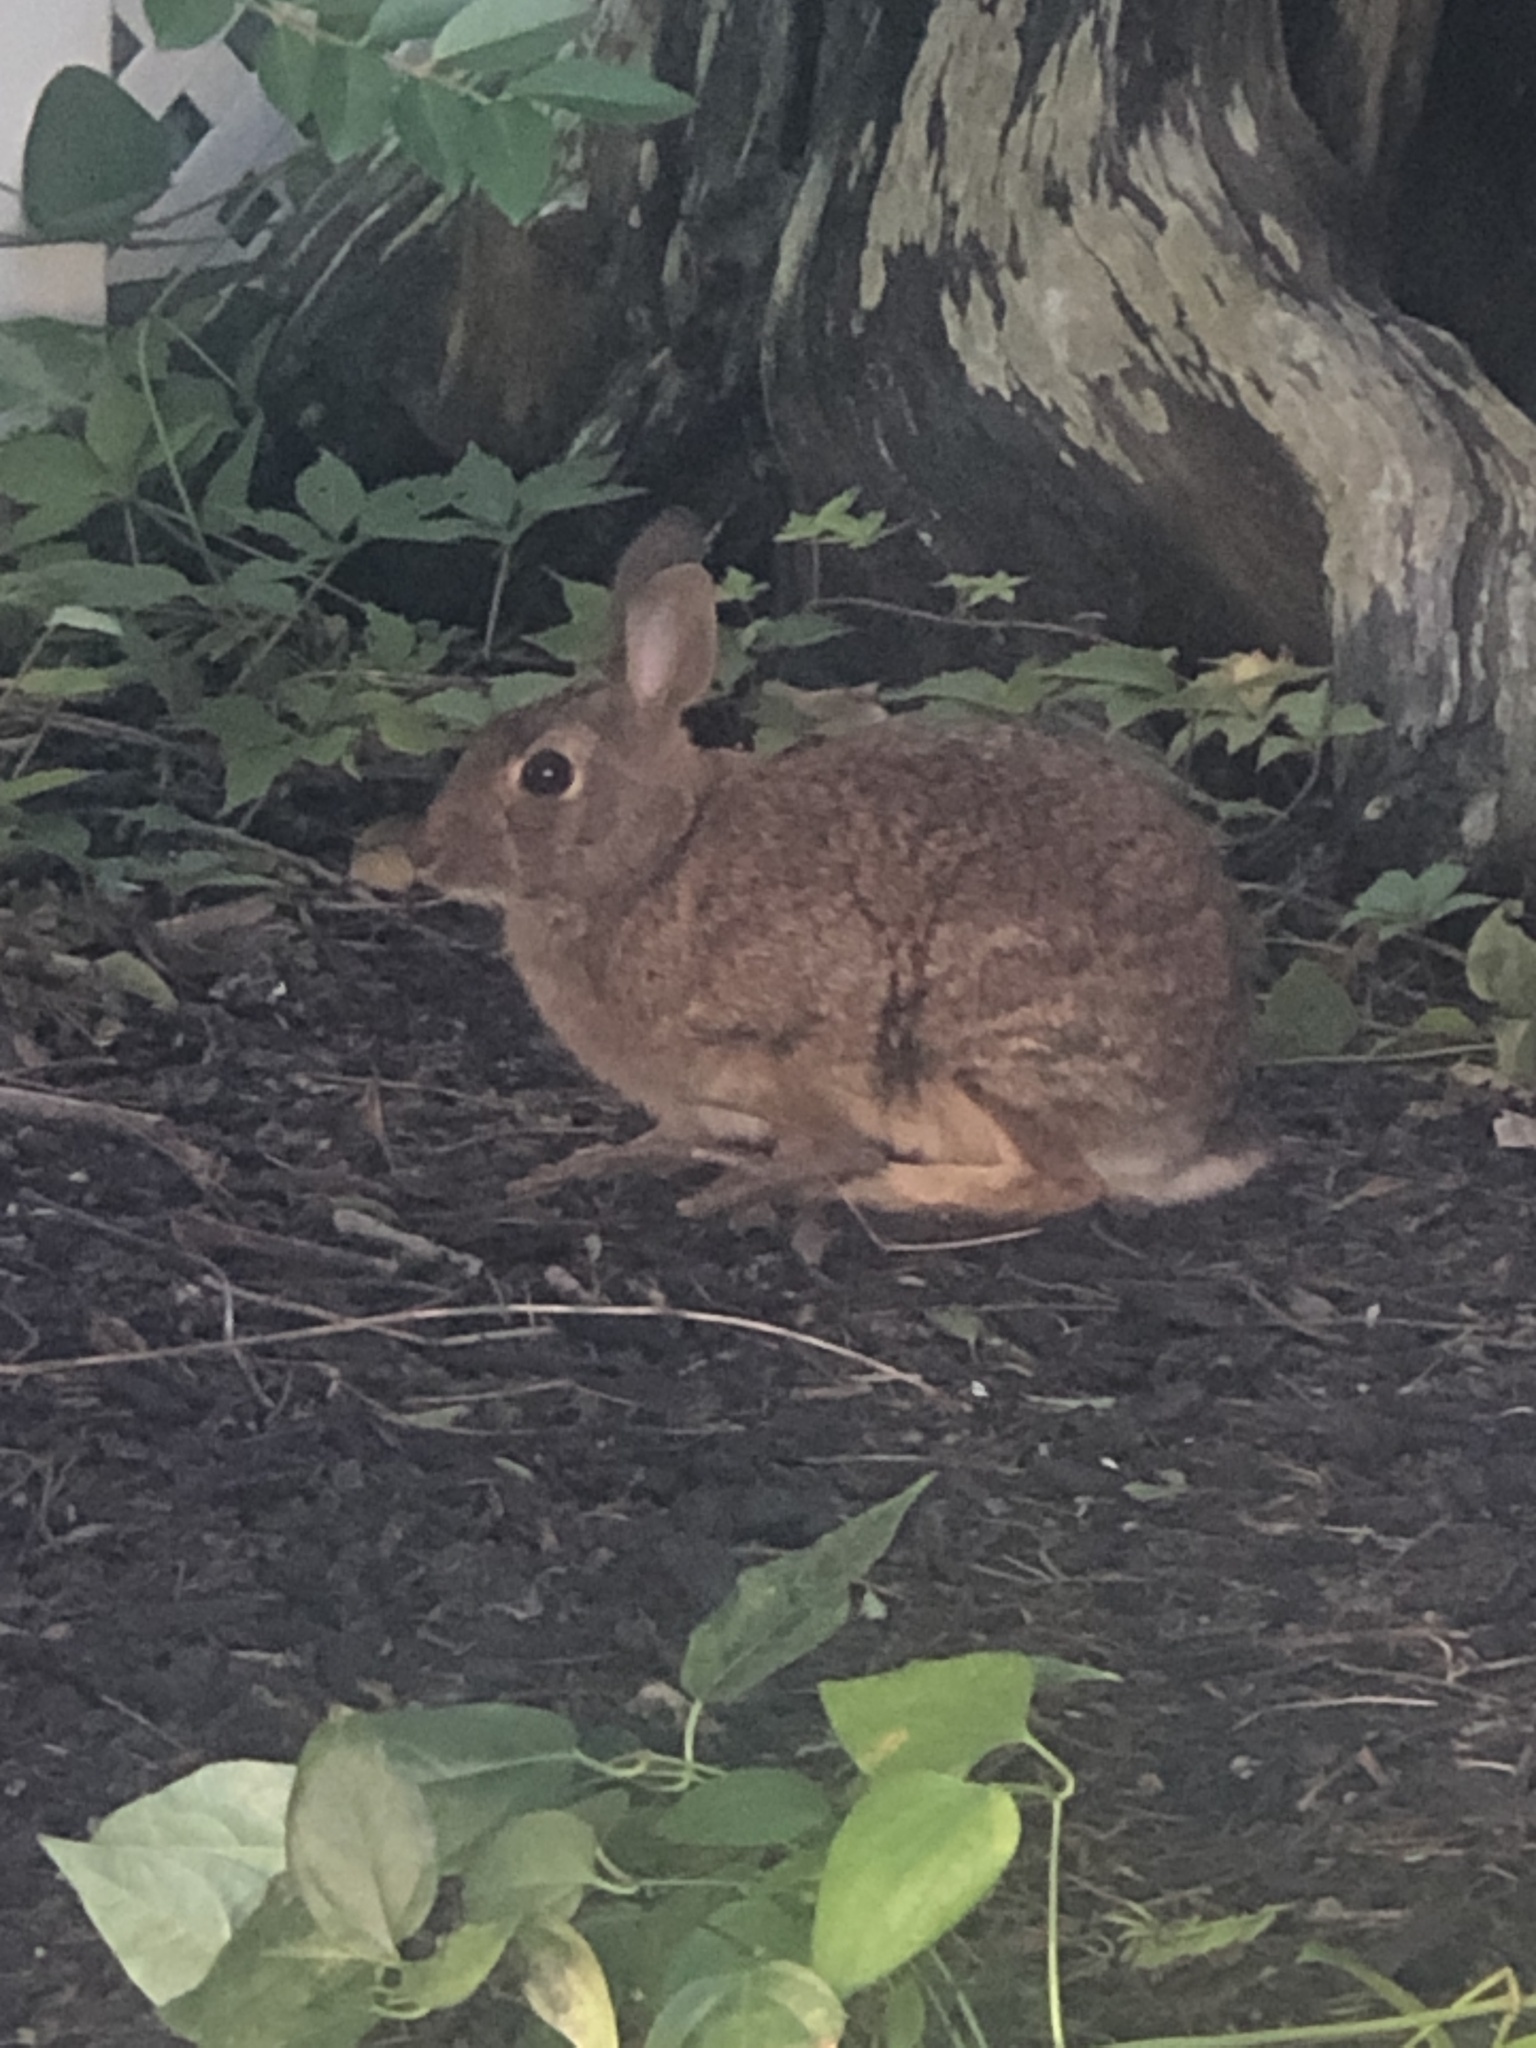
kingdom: Animalia
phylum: Chordata
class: Mammalia
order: Lagomorpha
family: Leporidae
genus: Sylvilagus
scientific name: Sylvilagus floridanus
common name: Eastern cottontail
